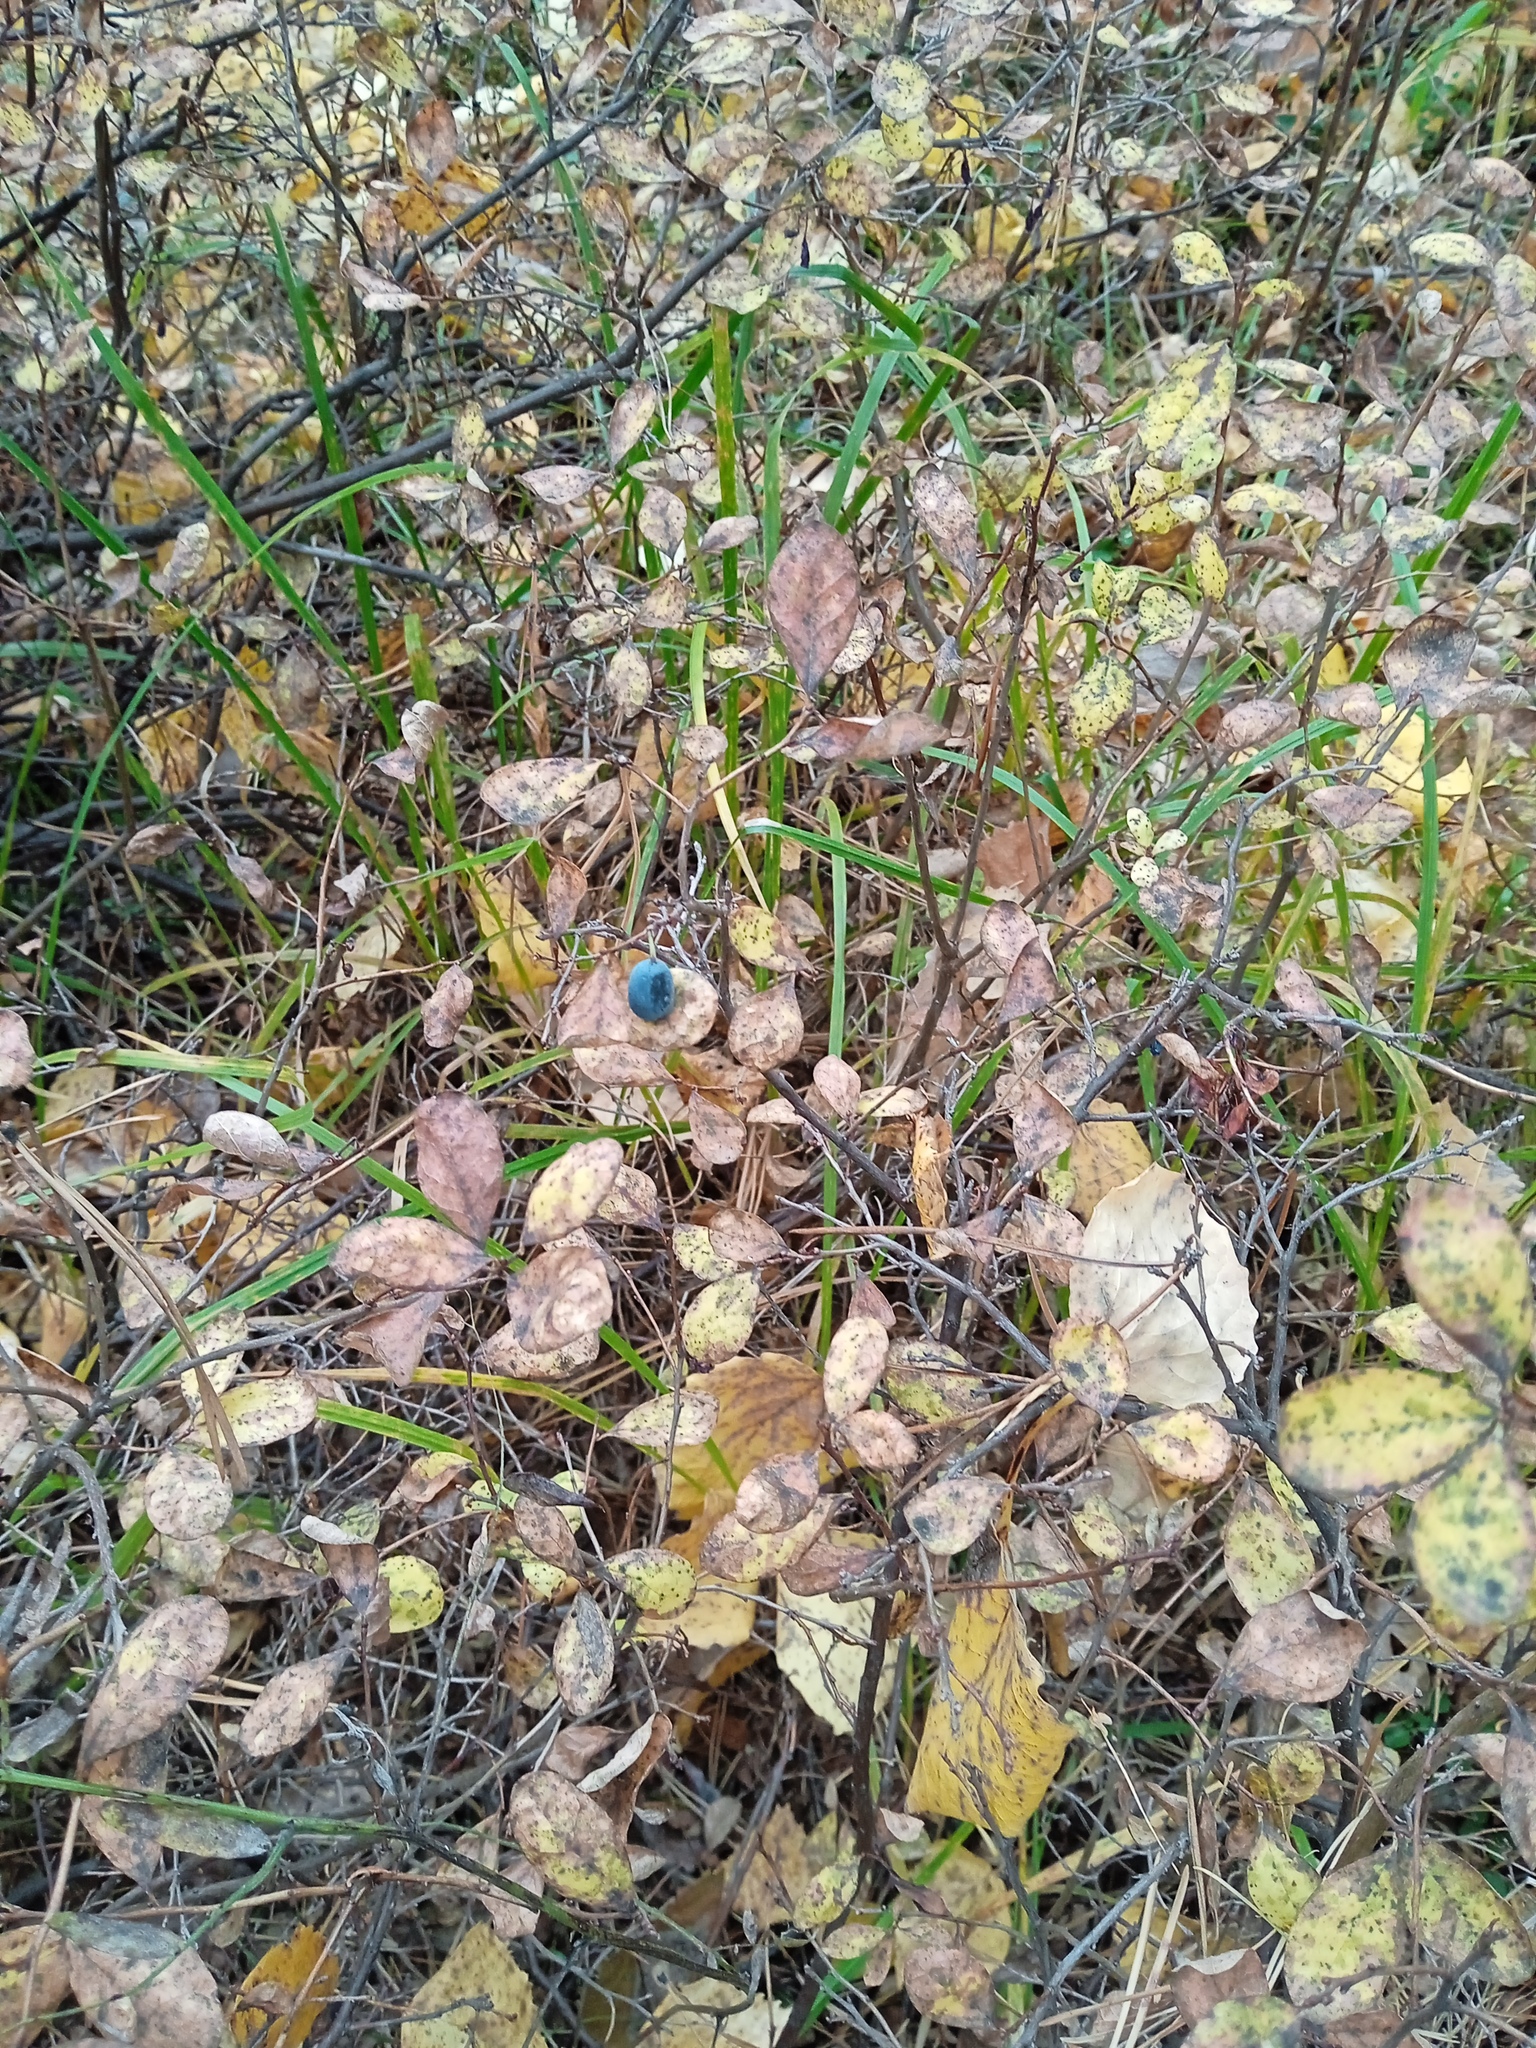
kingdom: Plantae
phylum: Tracheophyta
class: Magnoliopsida
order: Ericales
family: Ericaceae
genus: Vaccinium
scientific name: Vaccinium uliginosum
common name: Bog bilberry
